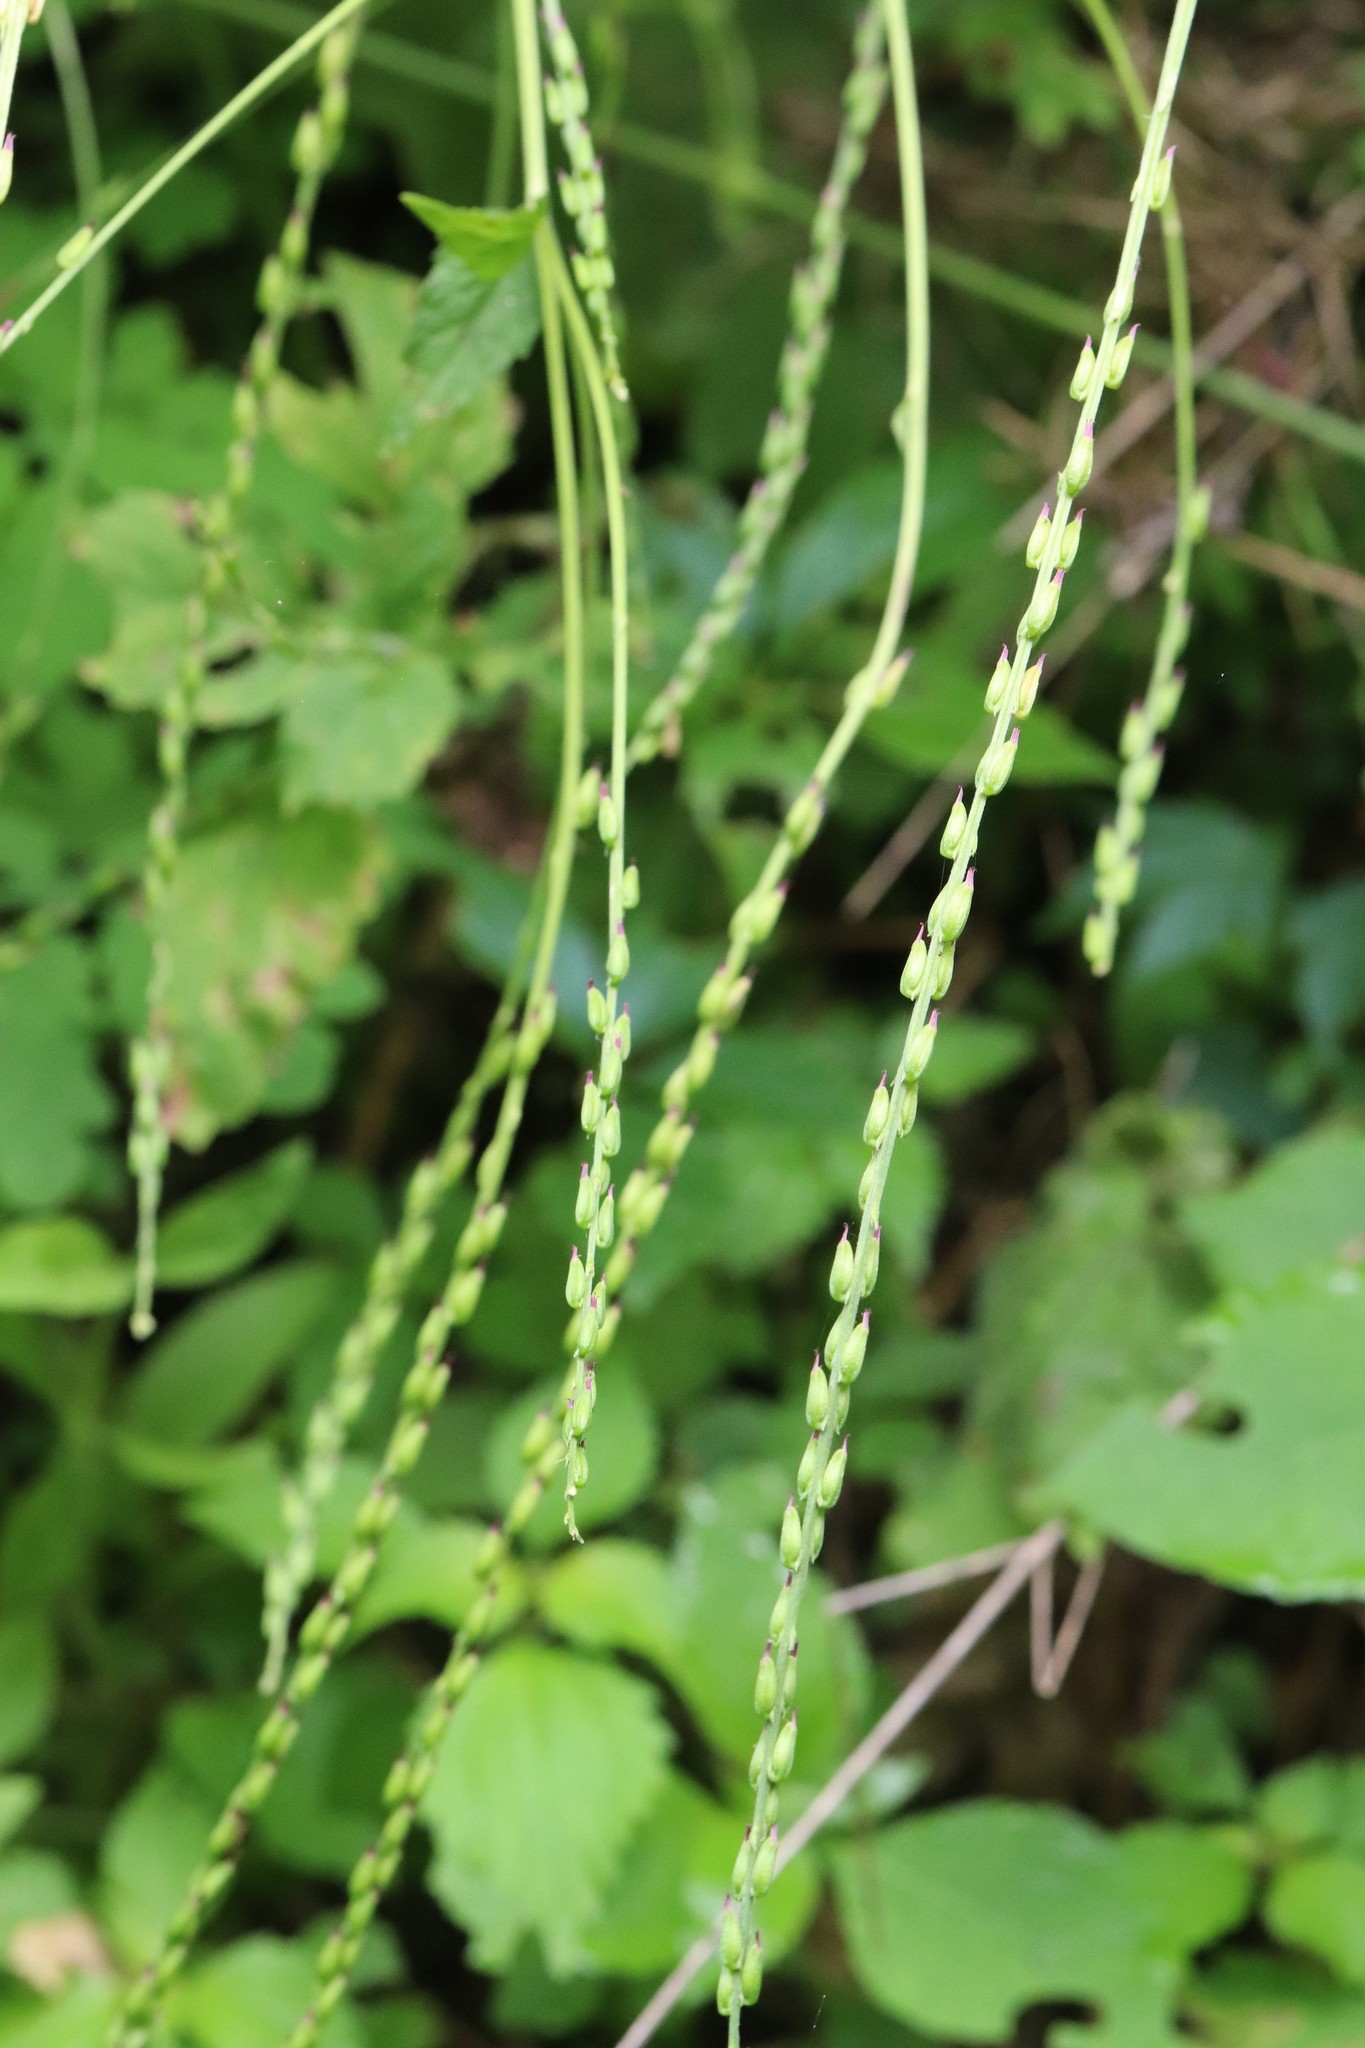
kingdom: Plantae
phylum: Tracheophyta
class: Magnoliopsida
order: Lamiales
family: Phrymaceae
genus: Phryma
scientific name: Phryma nana
